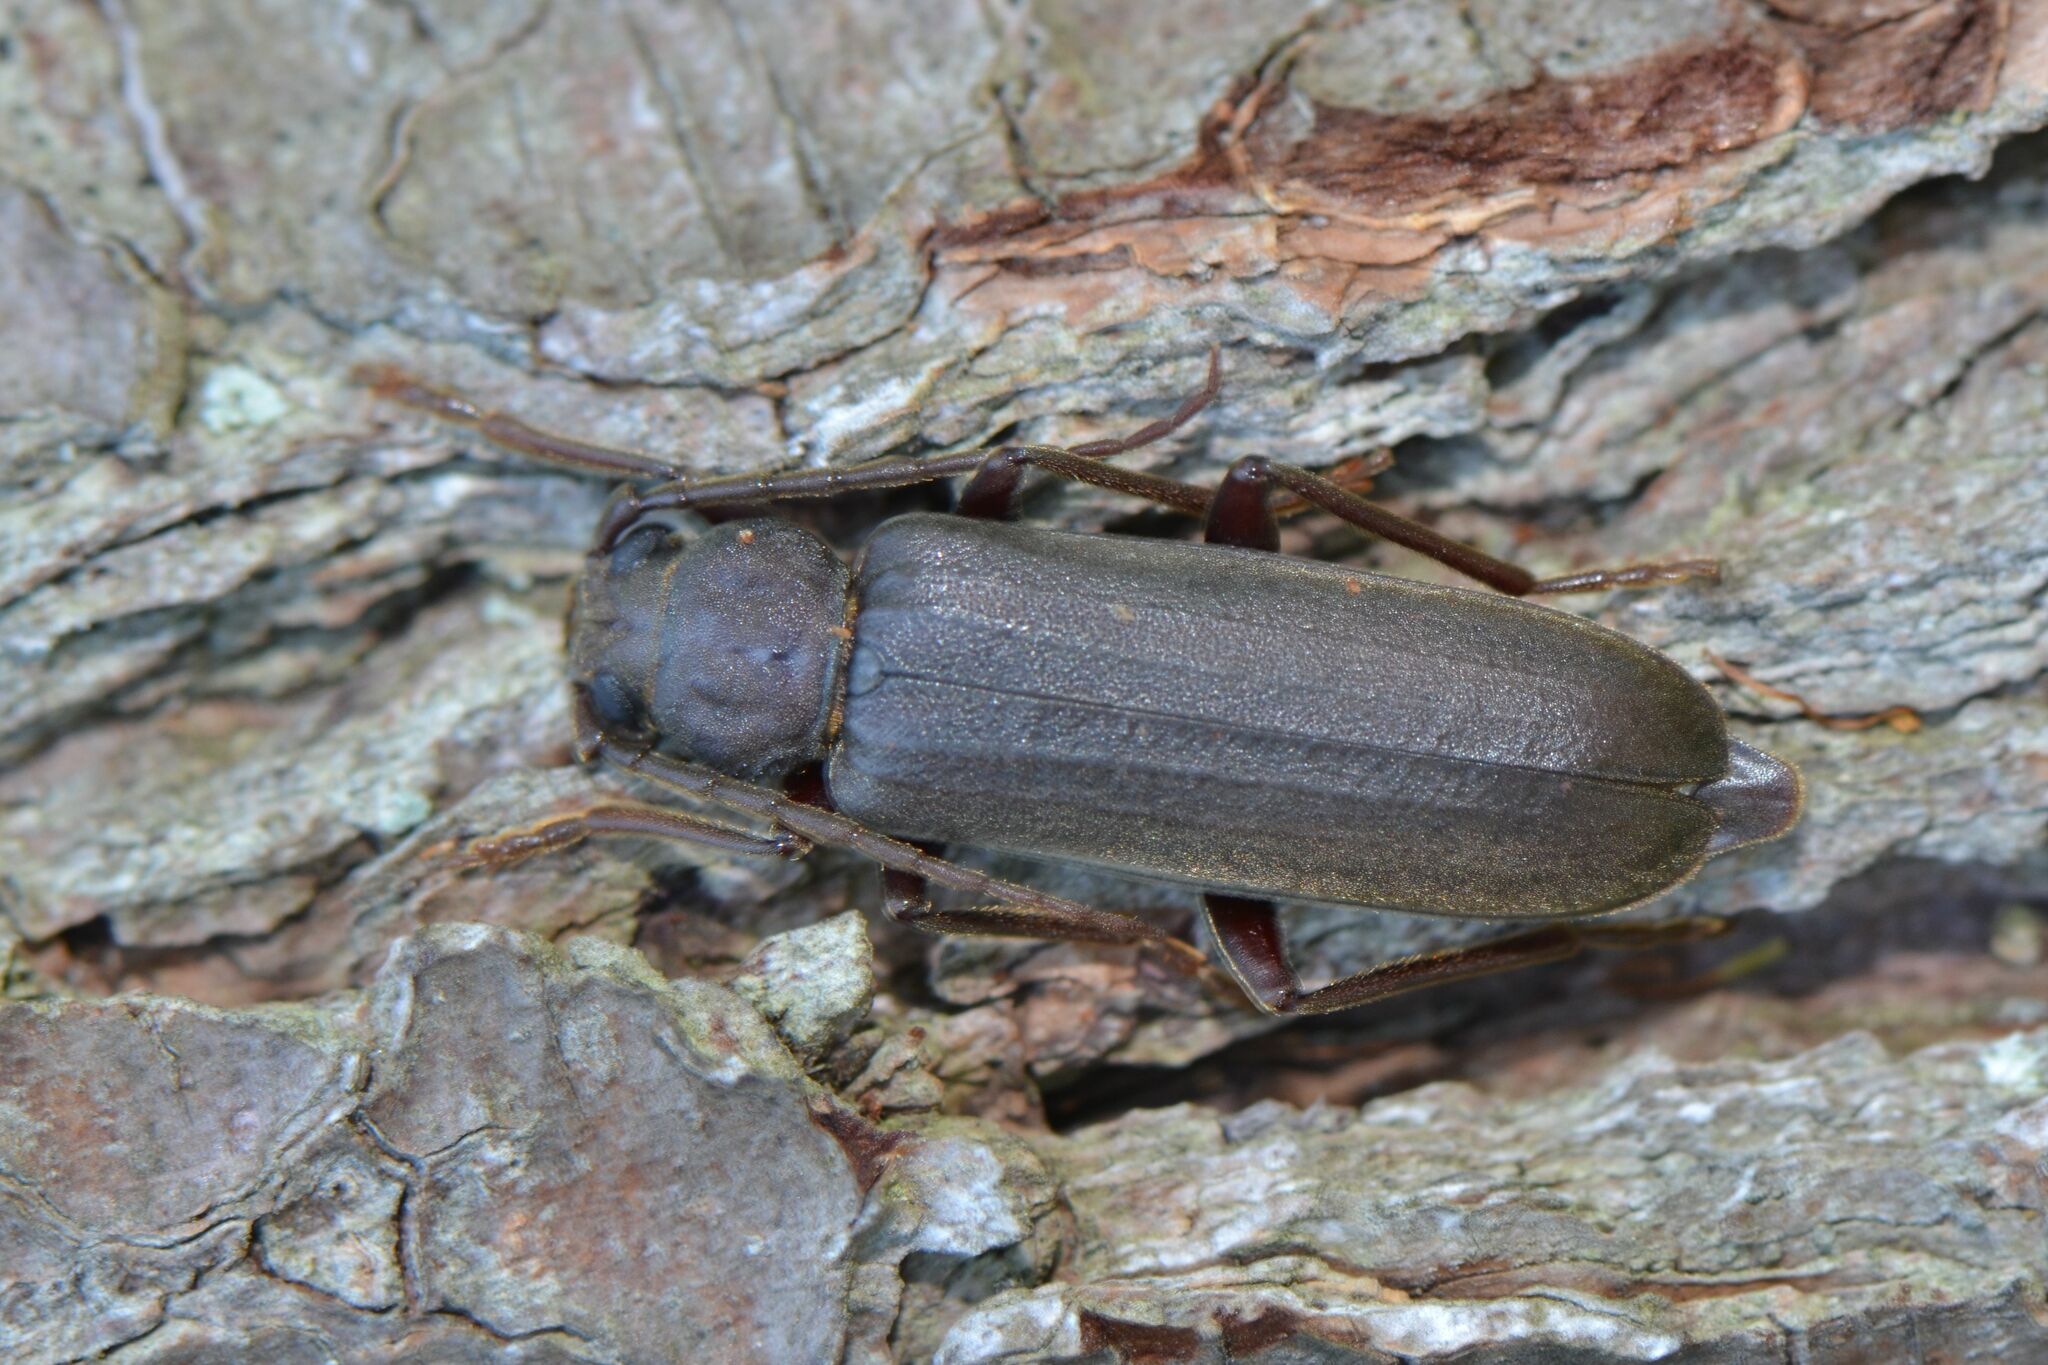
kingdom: Animalia
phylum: Arthropoda
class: Insecta
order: Coleoptera
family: Cerambycidae
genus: Arhopalus
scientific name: Arhopalus rusticus
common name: Rust pine borer
